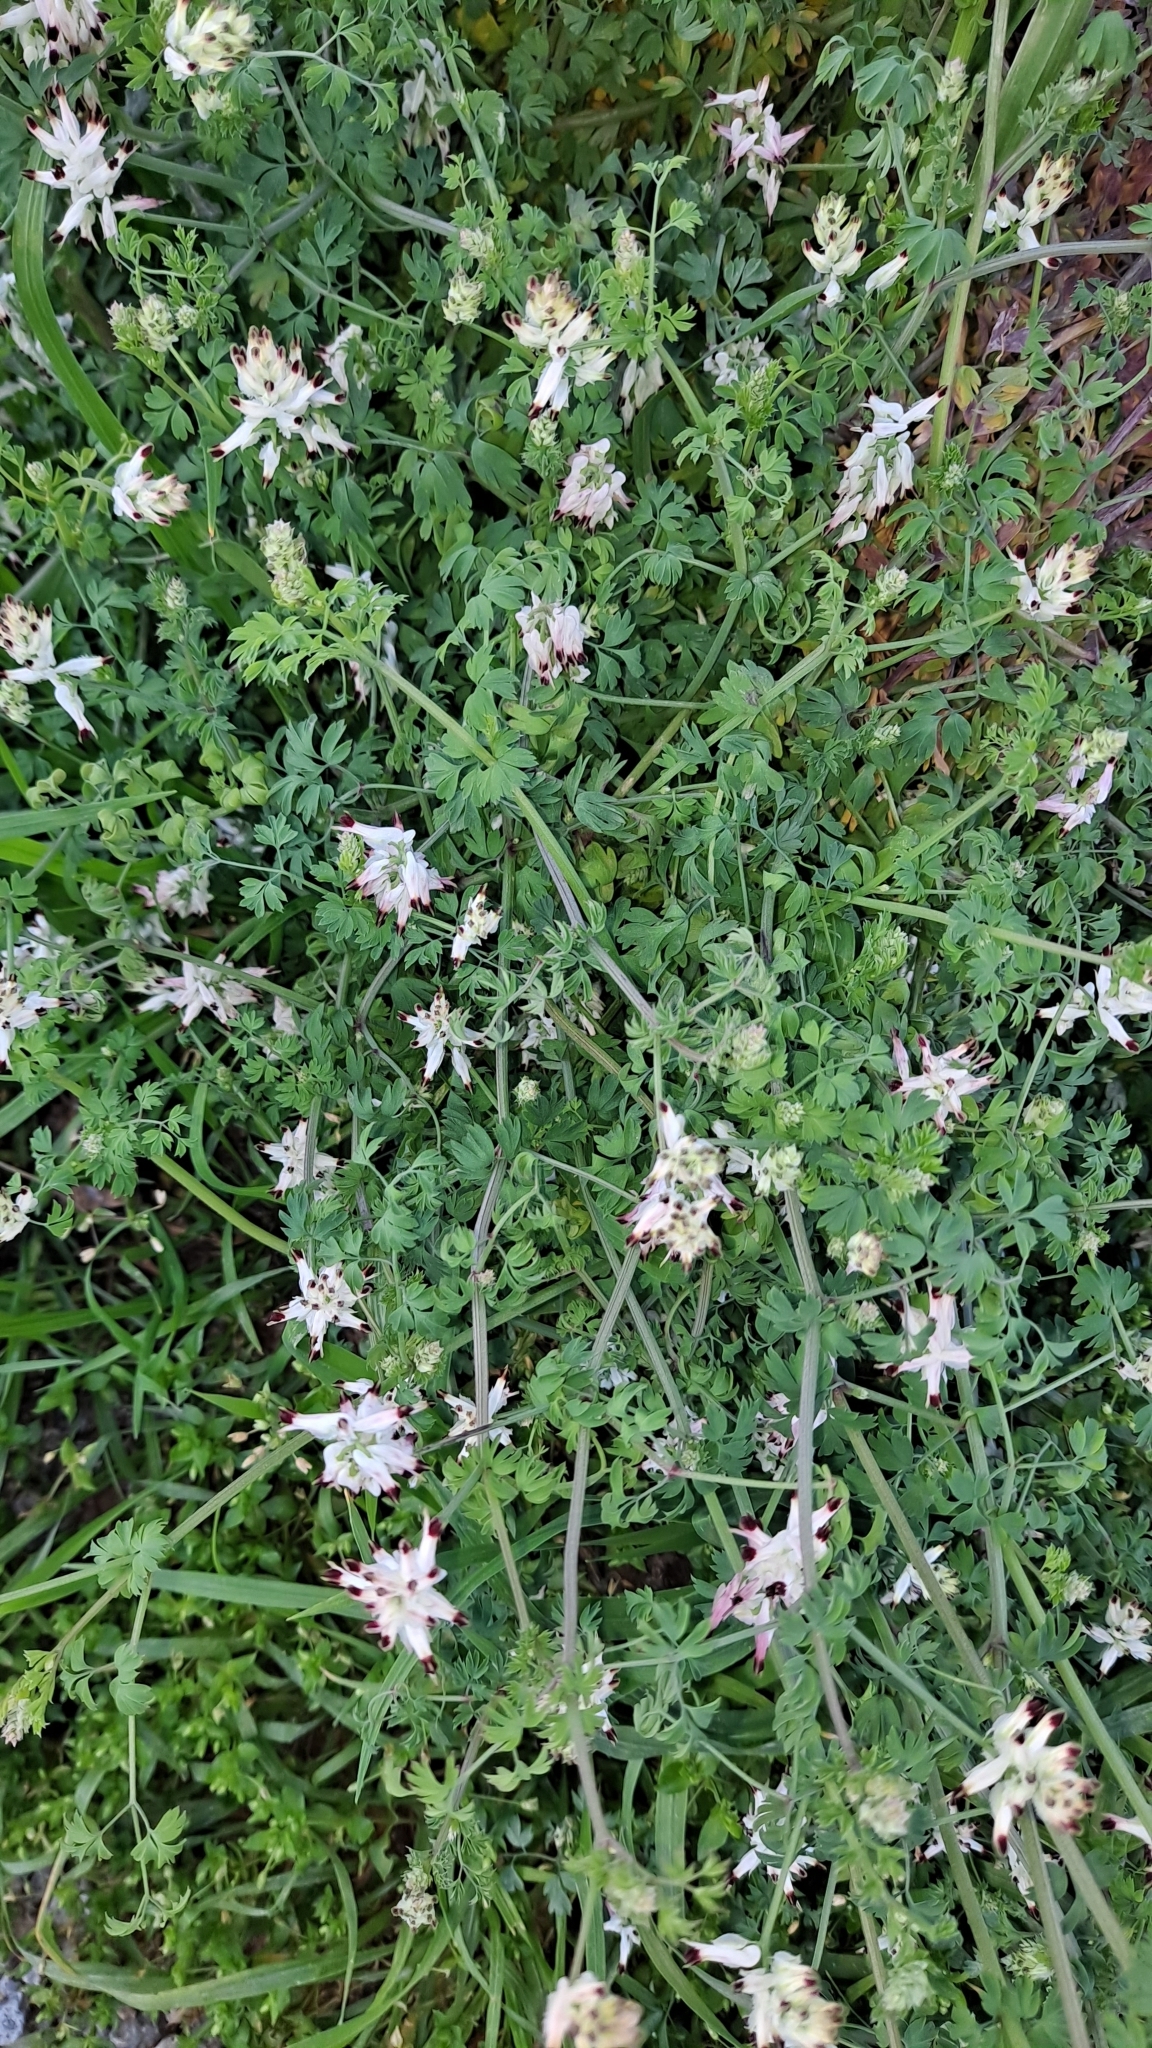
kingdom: Plantae
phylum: Tracheophyta
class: Magnoliopsida
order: Ranunculales
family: Papaveraceae
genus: Fumaria
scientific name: Fumaria capreolata
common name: White ramping-fumitory
